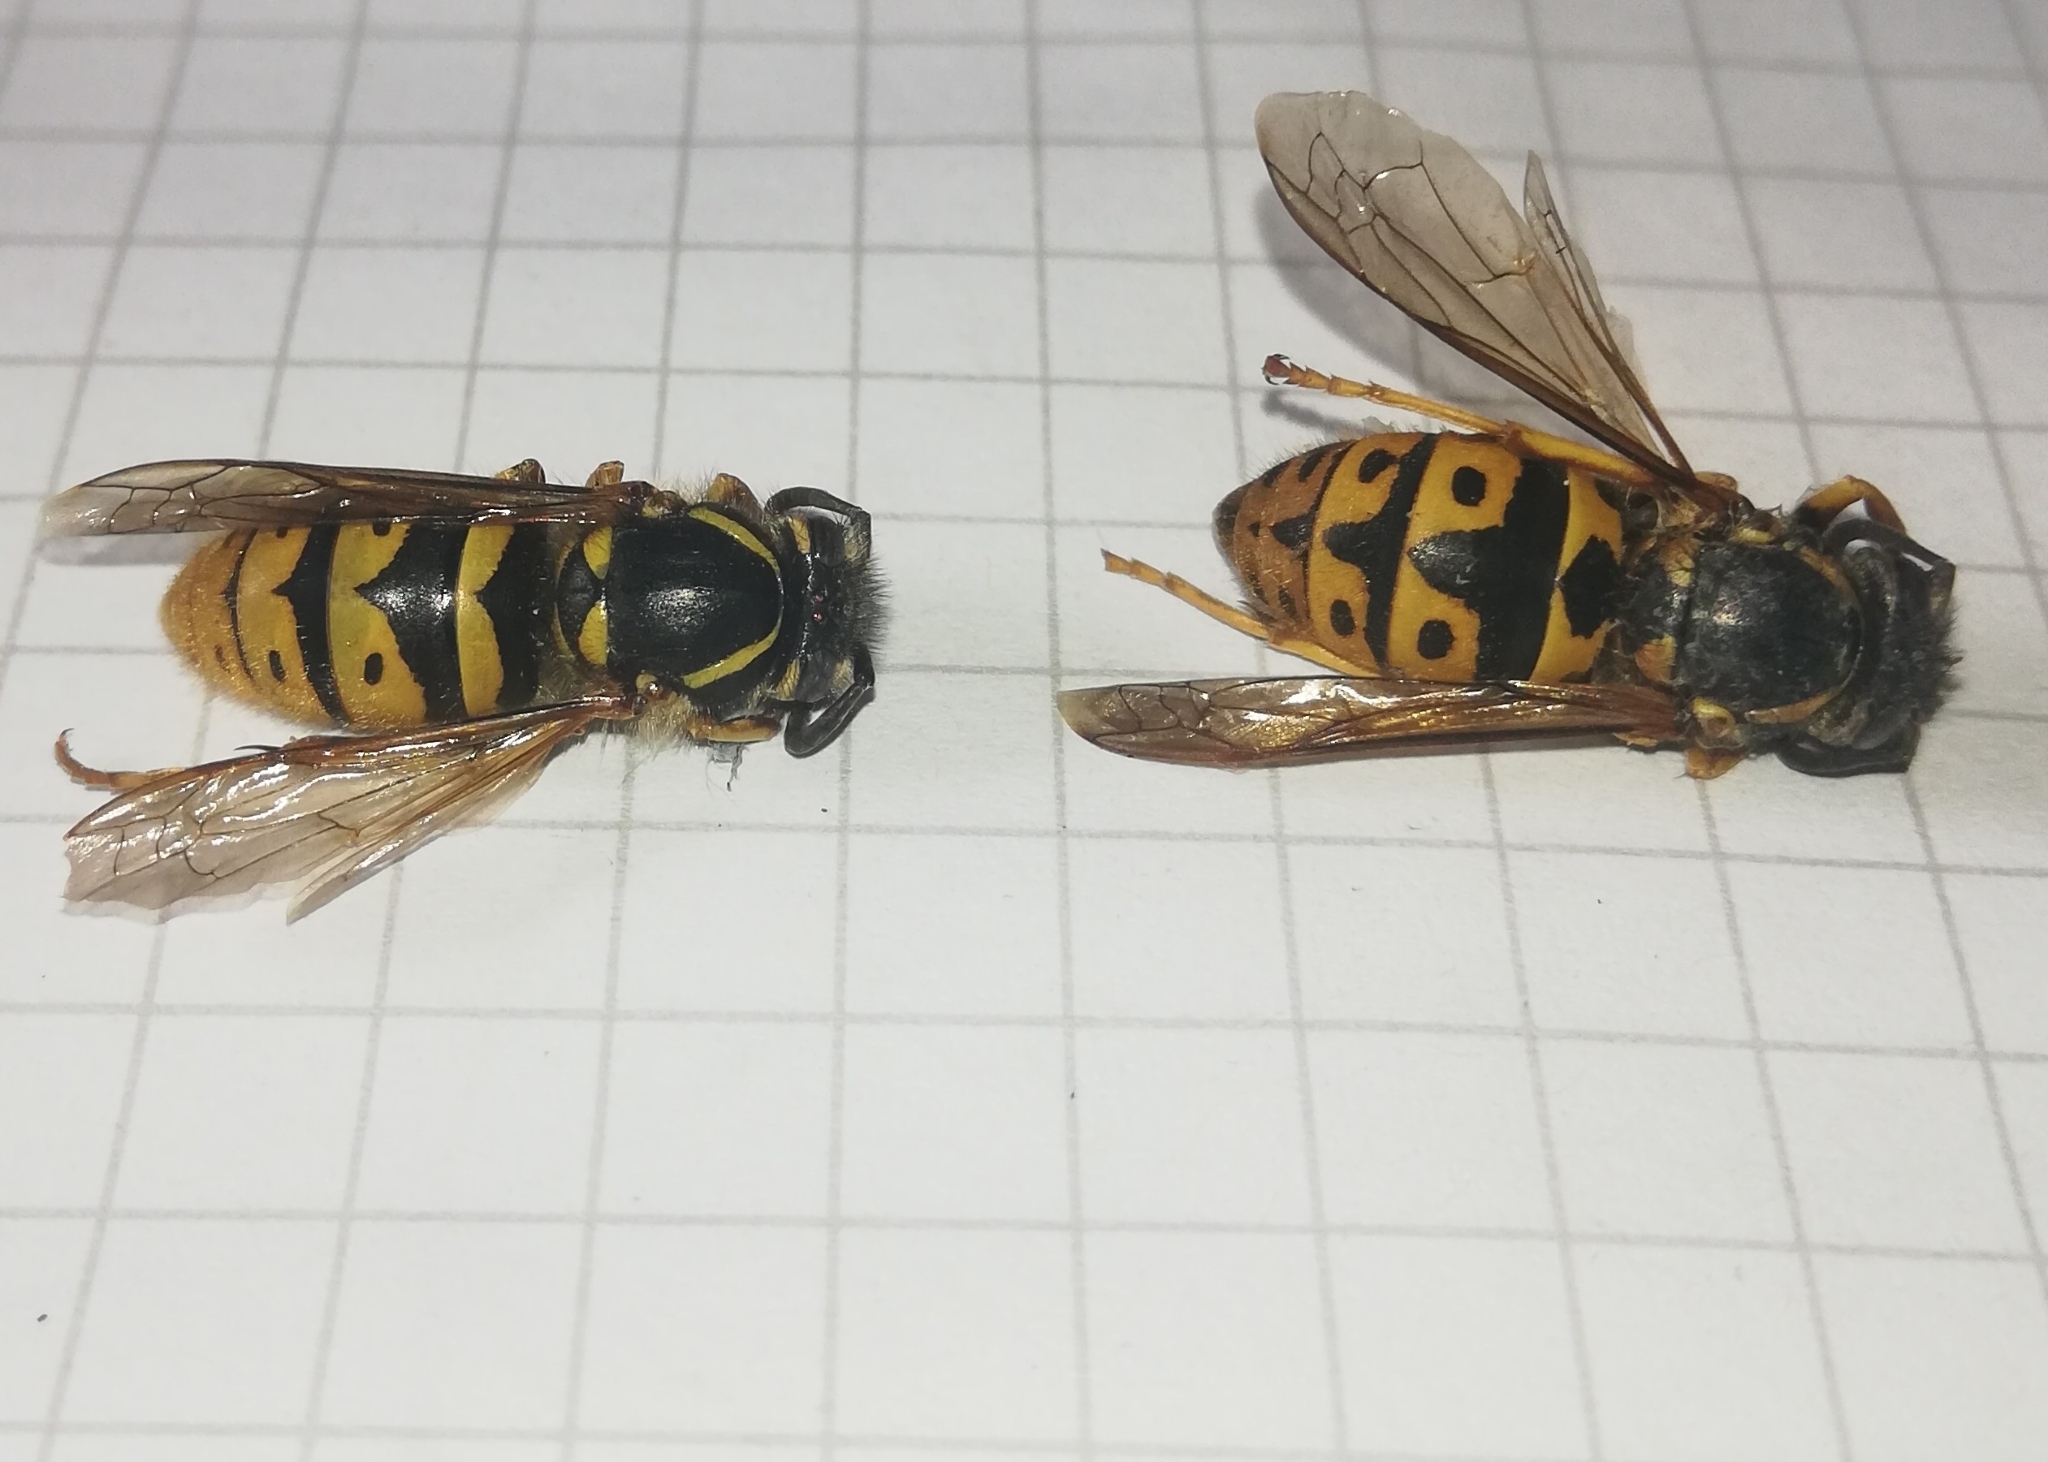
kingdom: Animalia
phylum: Arthropoda
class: Insecta
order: Hymenoptera
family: Vespidae
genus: Vespula
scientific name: Vespula vulgaris
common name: Common wasp
